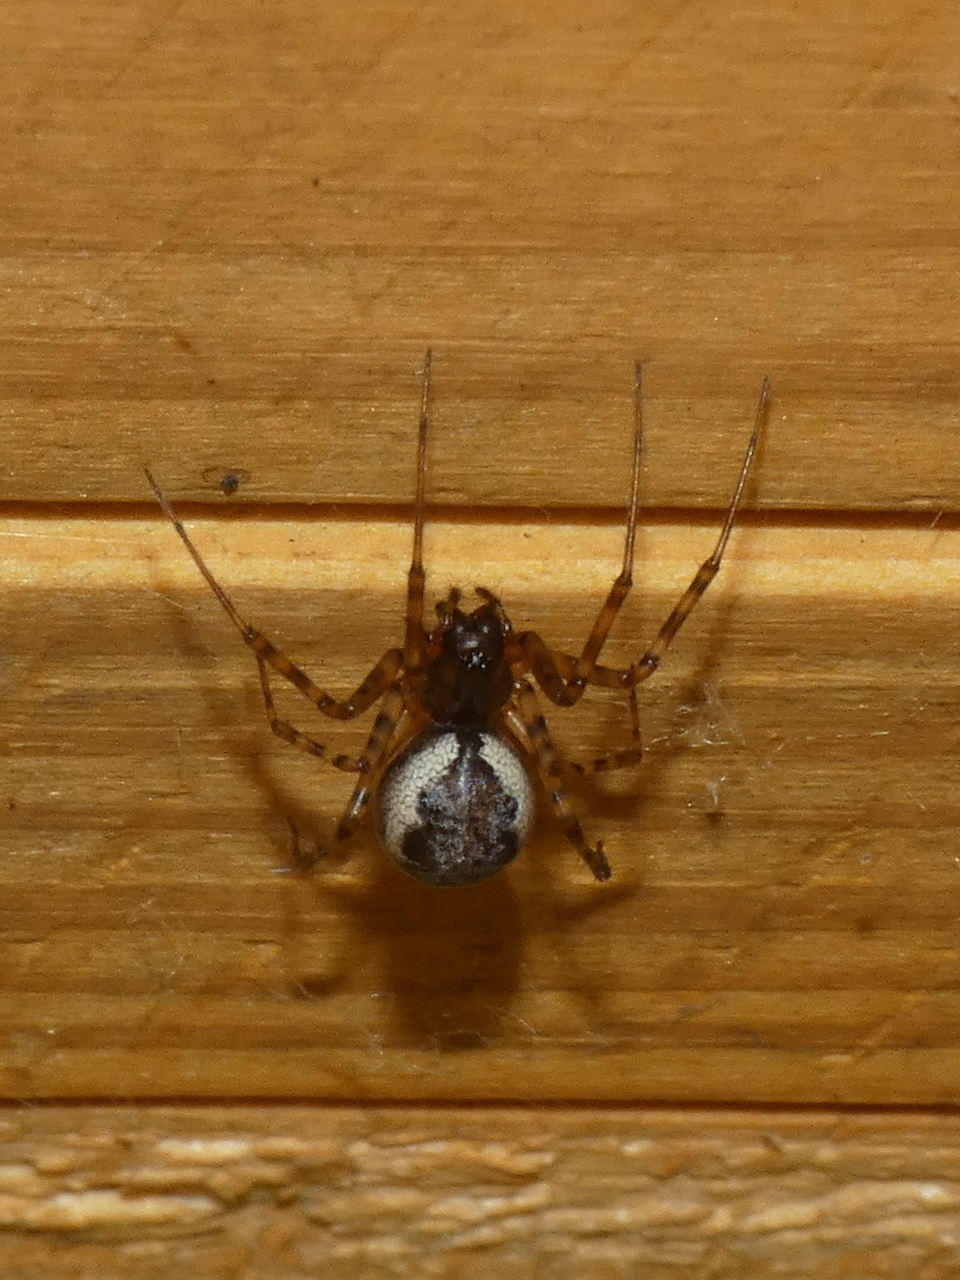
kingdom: Animalia
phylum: Arthropoda
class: Arachnida
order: Araneae
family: Linyphiidae
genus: Neriene
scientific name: Neriene montana
